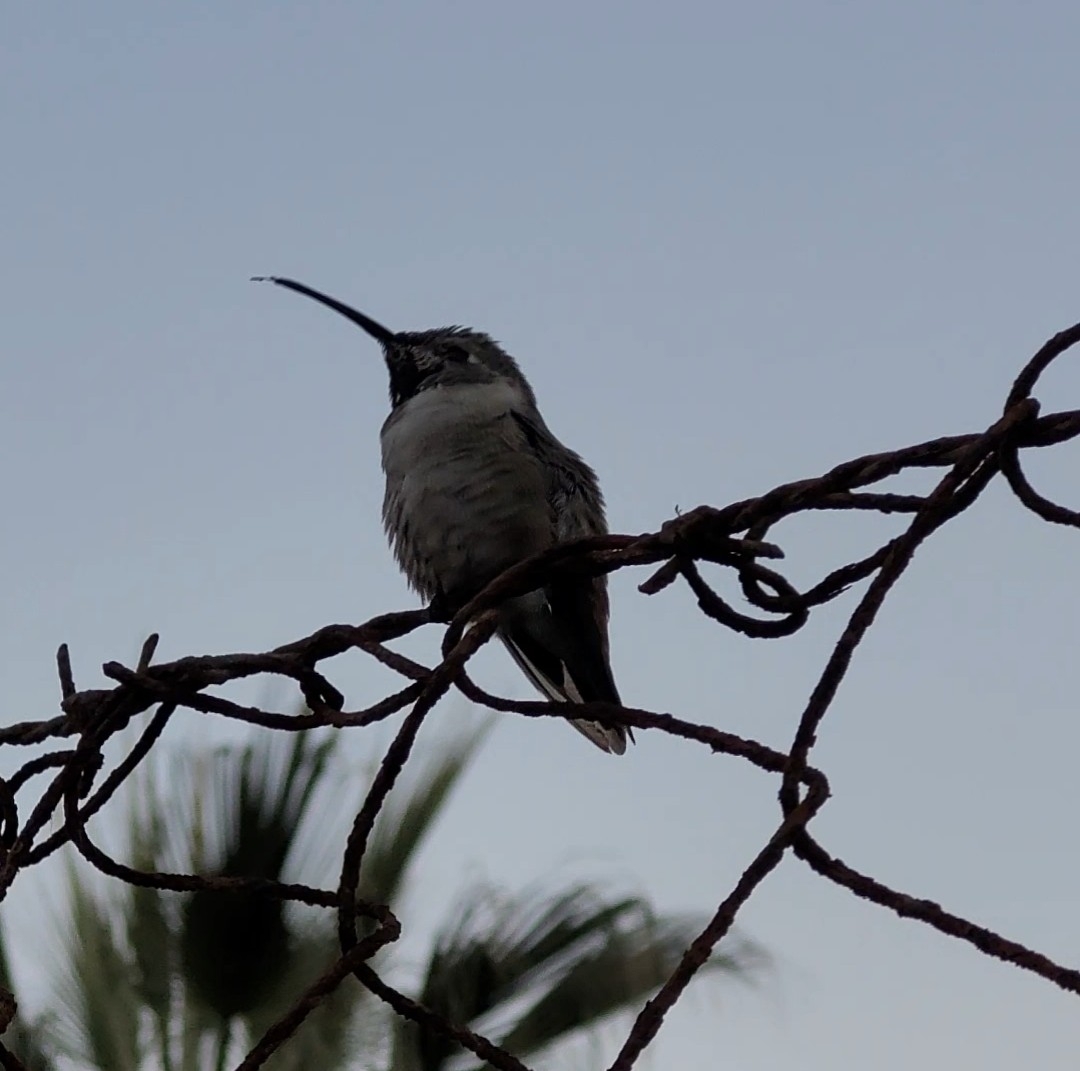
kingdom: Animalia
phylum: Chordata
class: Aves
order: Apodiformes
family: Trochilidae
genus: Rhodopis
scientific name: Rhodopis vesper
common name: Oasis hummingbird
